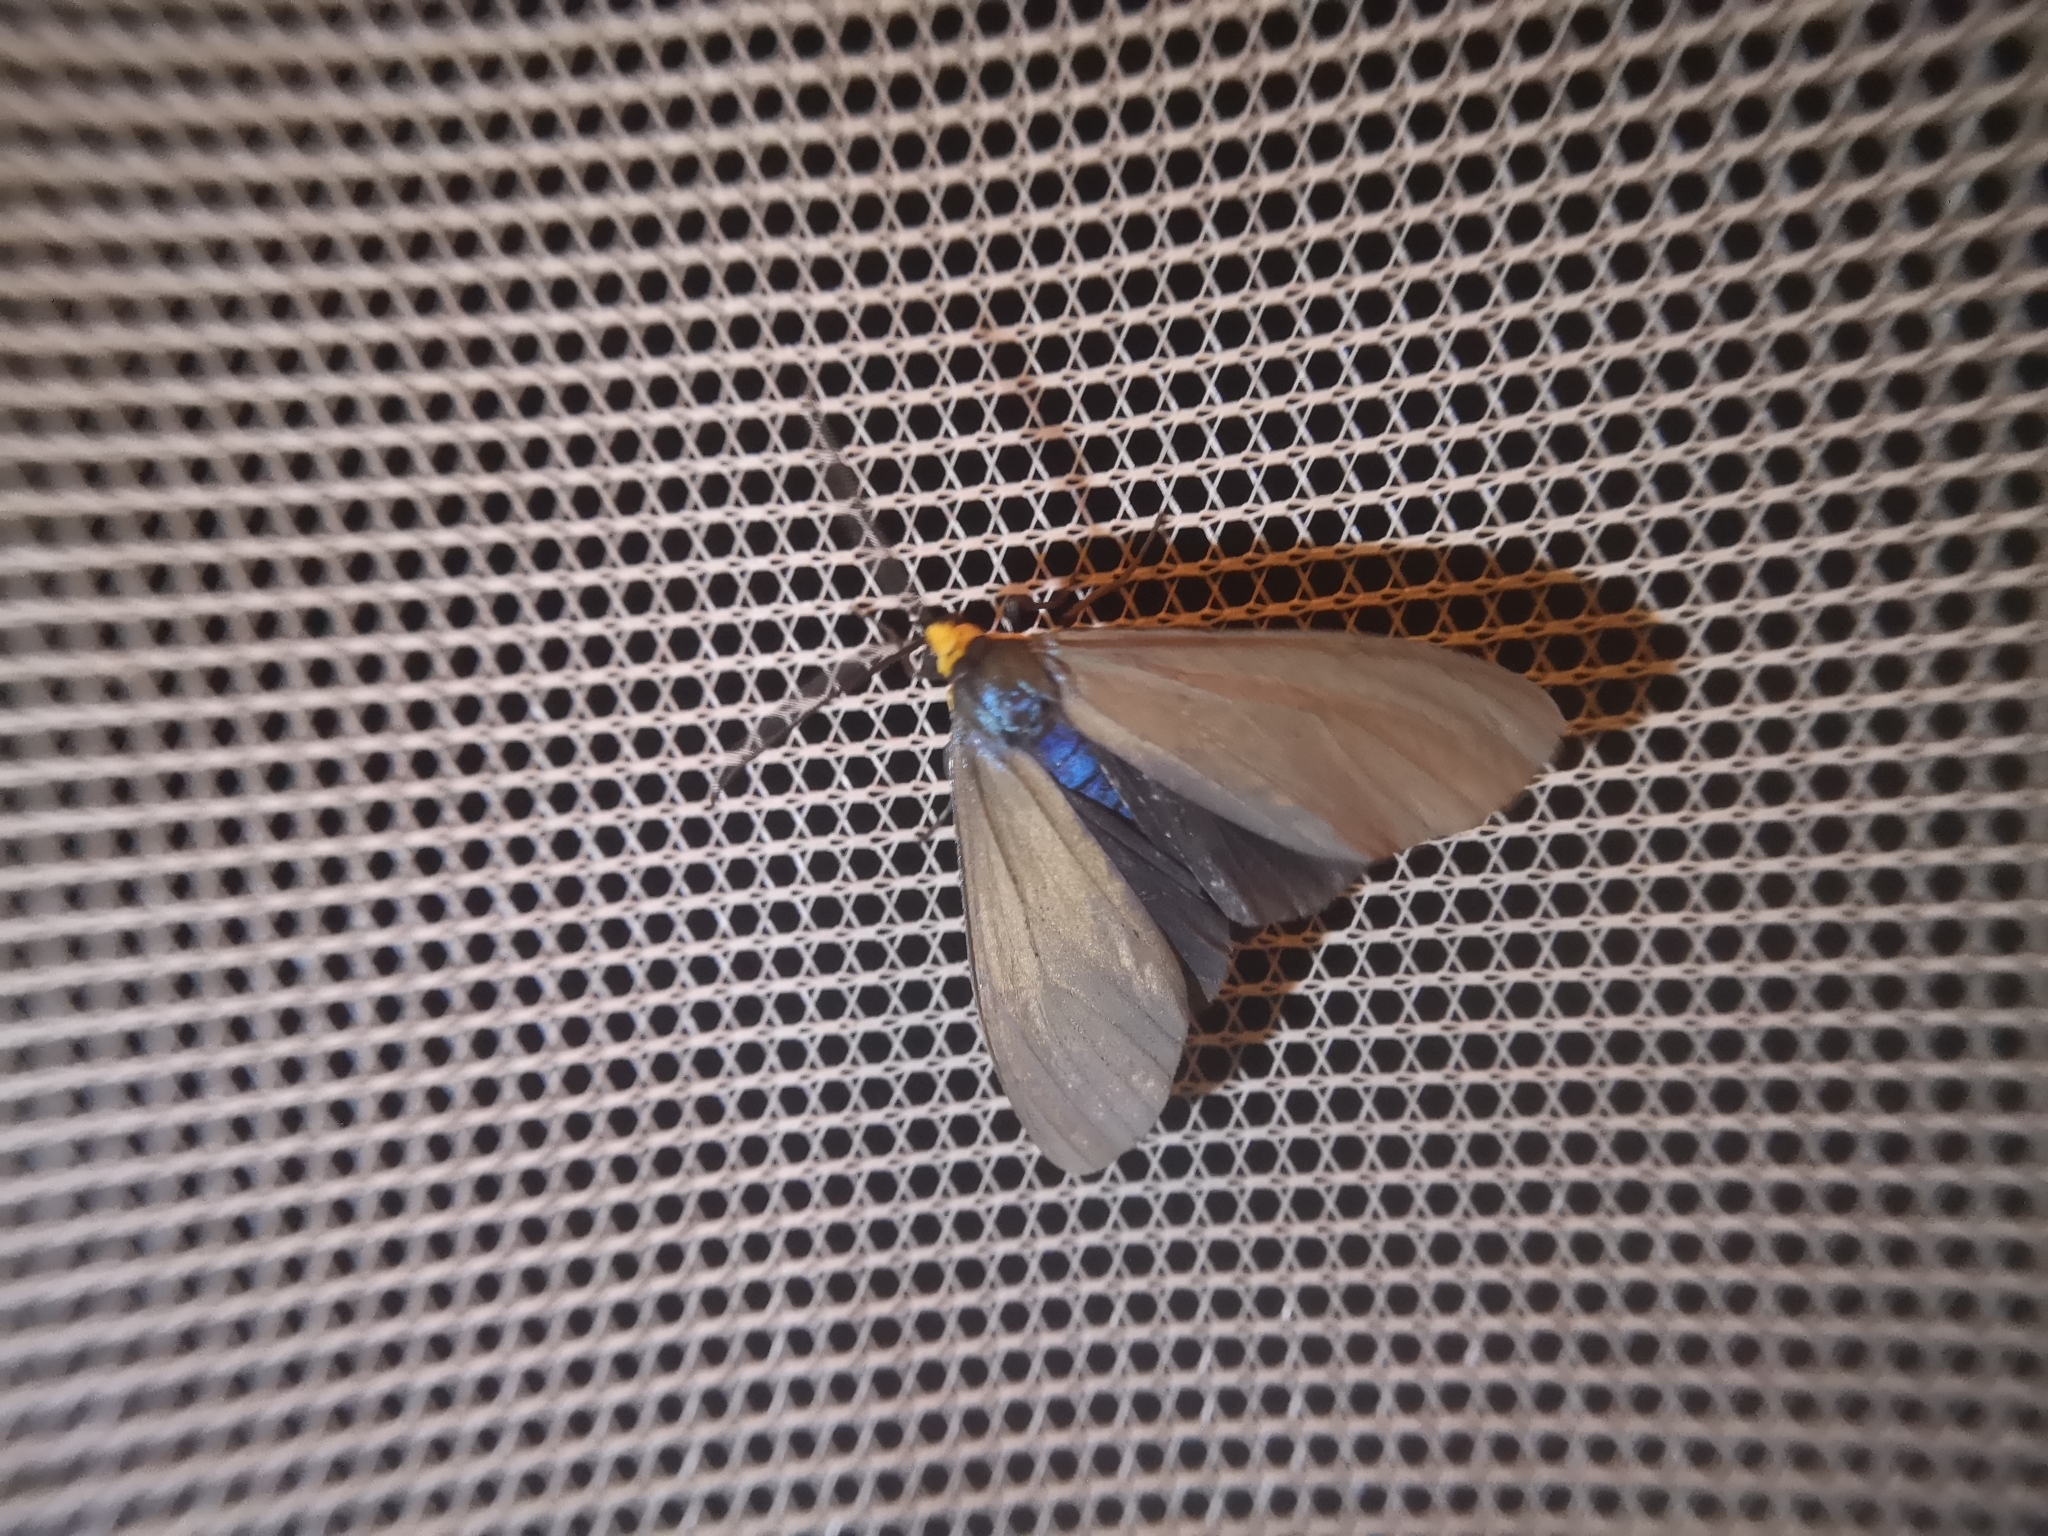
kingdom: Animalia
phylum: Arthropoda
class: Insecta
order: Lepidoptera
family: Erebidae
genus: Ctenucha
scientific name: Ctenucha virginica
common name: Virginia ctenucha moth
